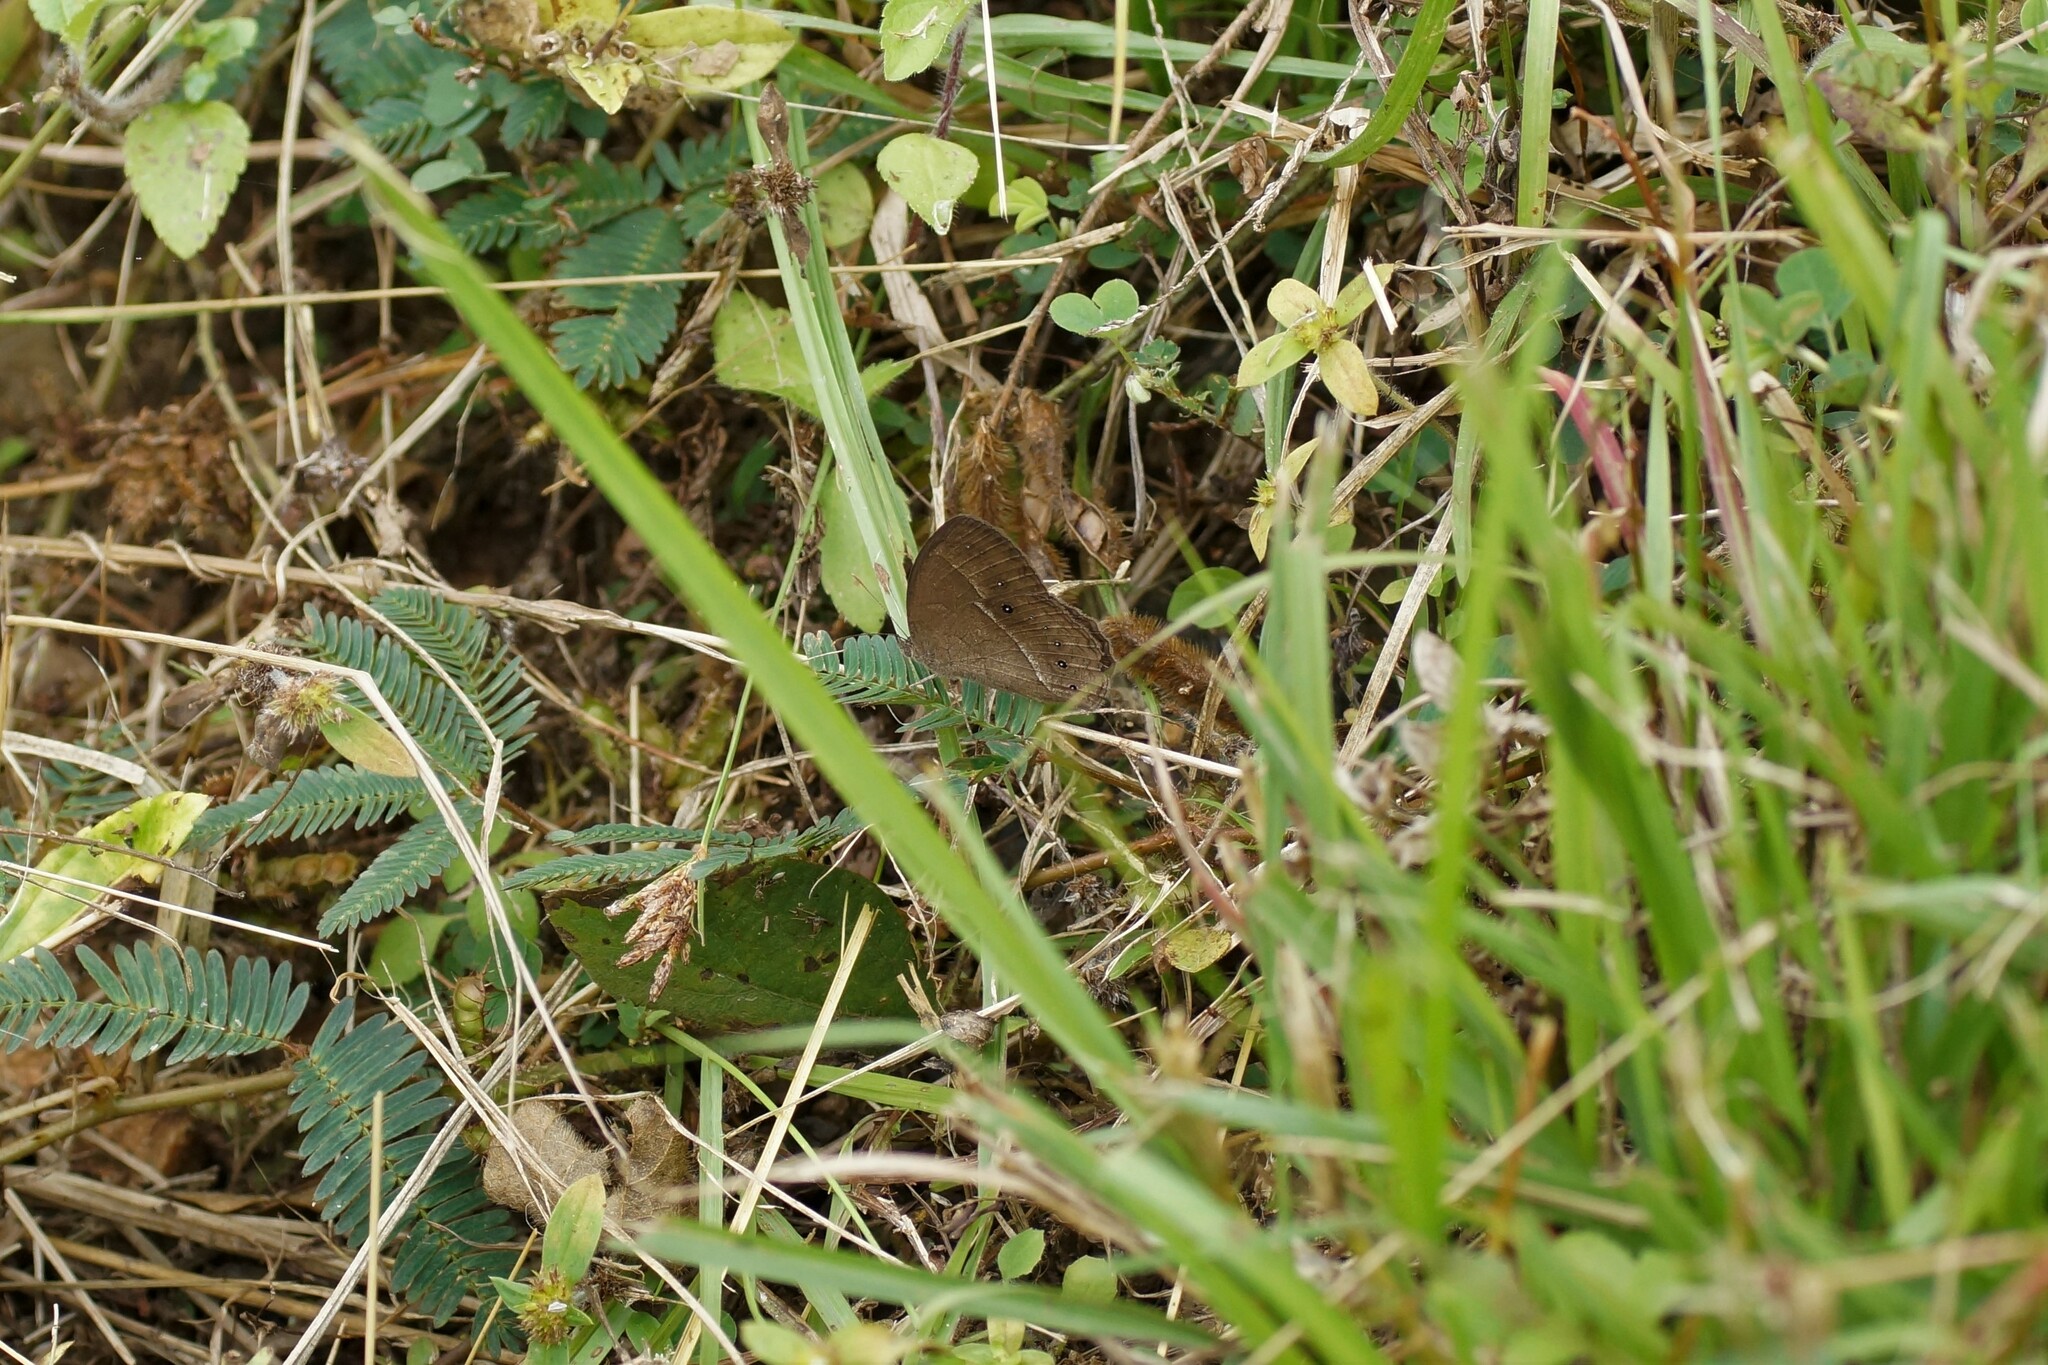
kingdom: Animalia
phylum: Arthropoda
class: Insecta
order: Lepidoptera
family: Nymphalidae
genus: Mycalesis
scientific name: Mycalesis perseus
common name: Dingy bushbrown
